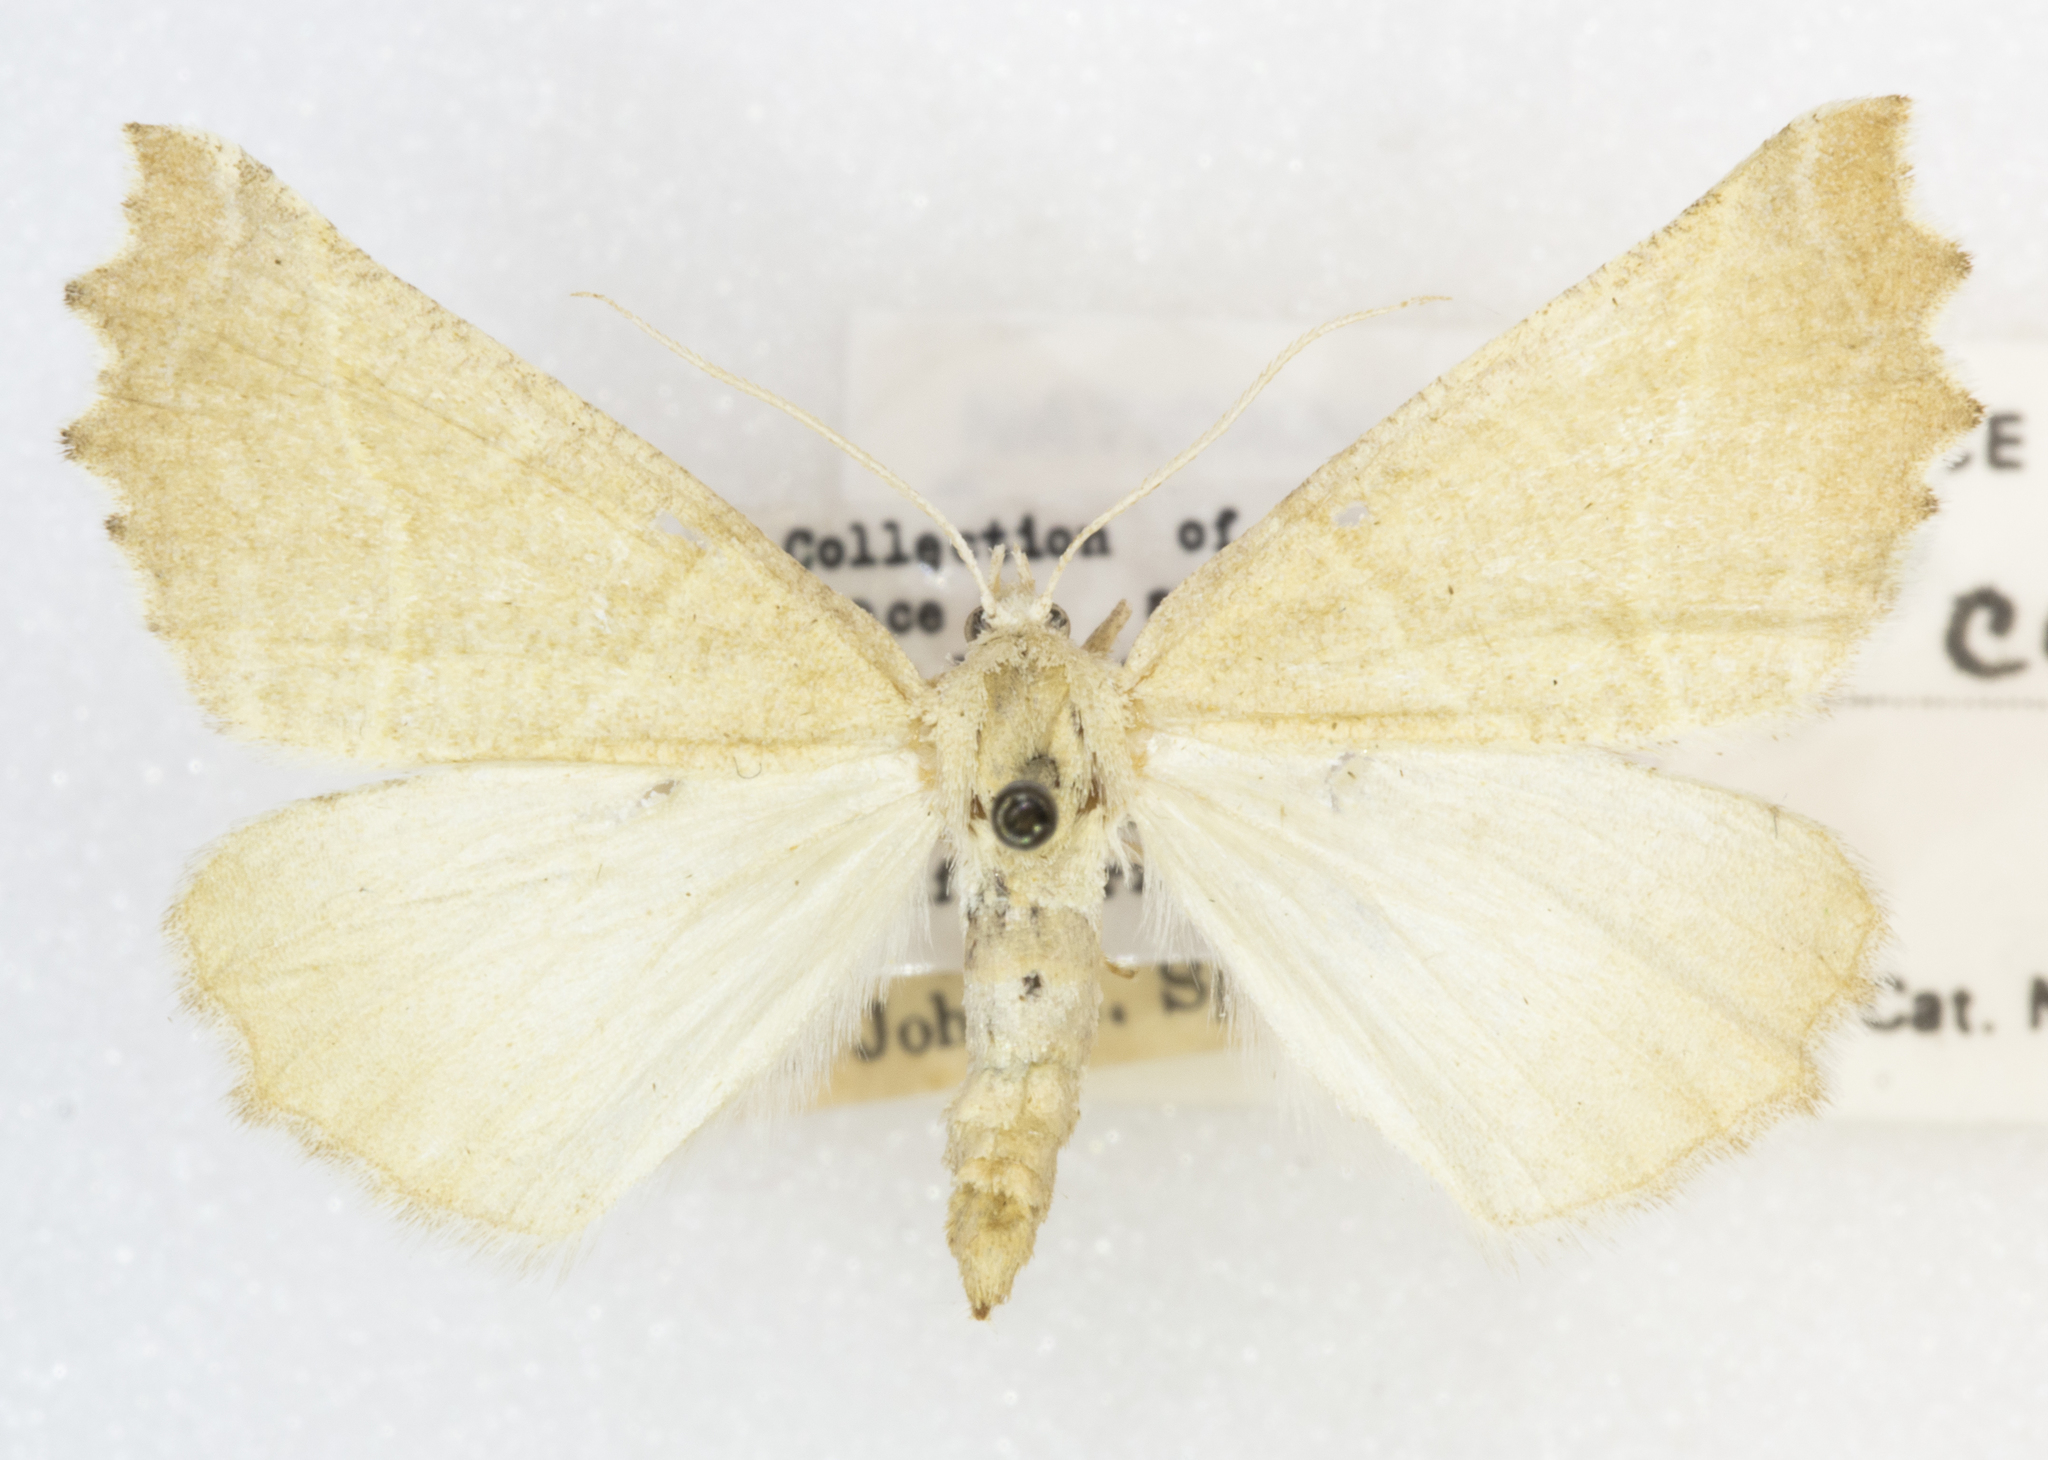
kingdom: Animalia
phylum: Arthropoda
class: Insecta
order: Lepidoptera
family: Geometridae
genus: Plataea
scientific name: Plataea calcaria
